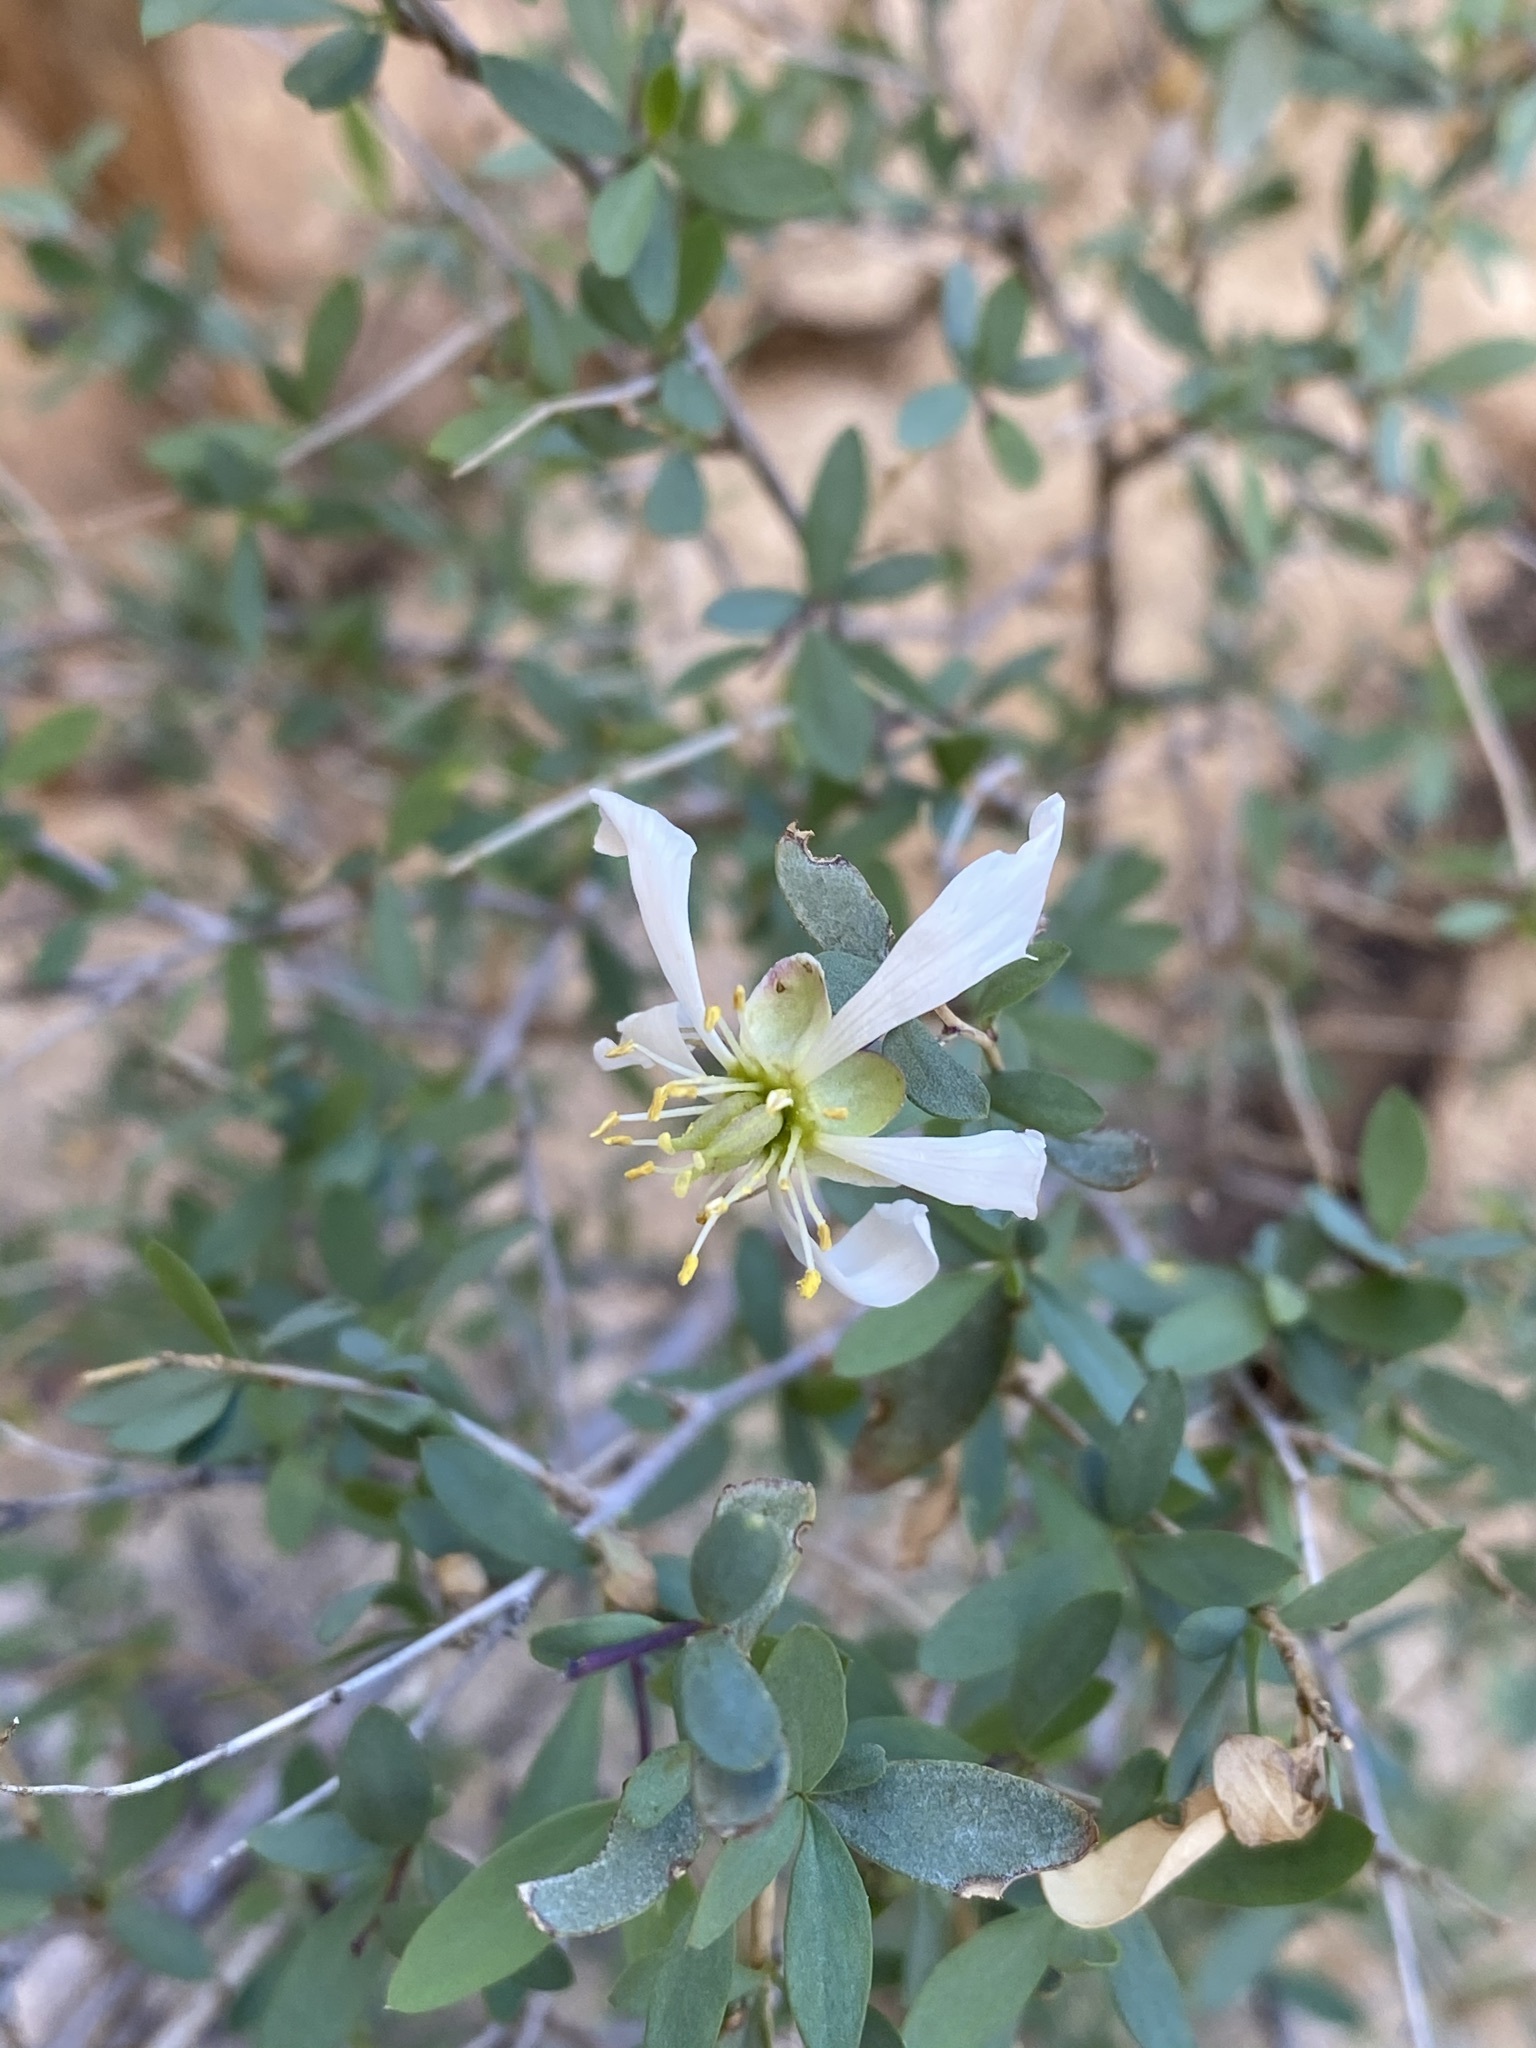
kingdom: Plantae
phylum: Tracheophyta
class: Magnoliopsida
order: Crossosomatales
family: Crossosomataceae
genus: Crossosoma
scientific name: Crossosoma bigelovii
